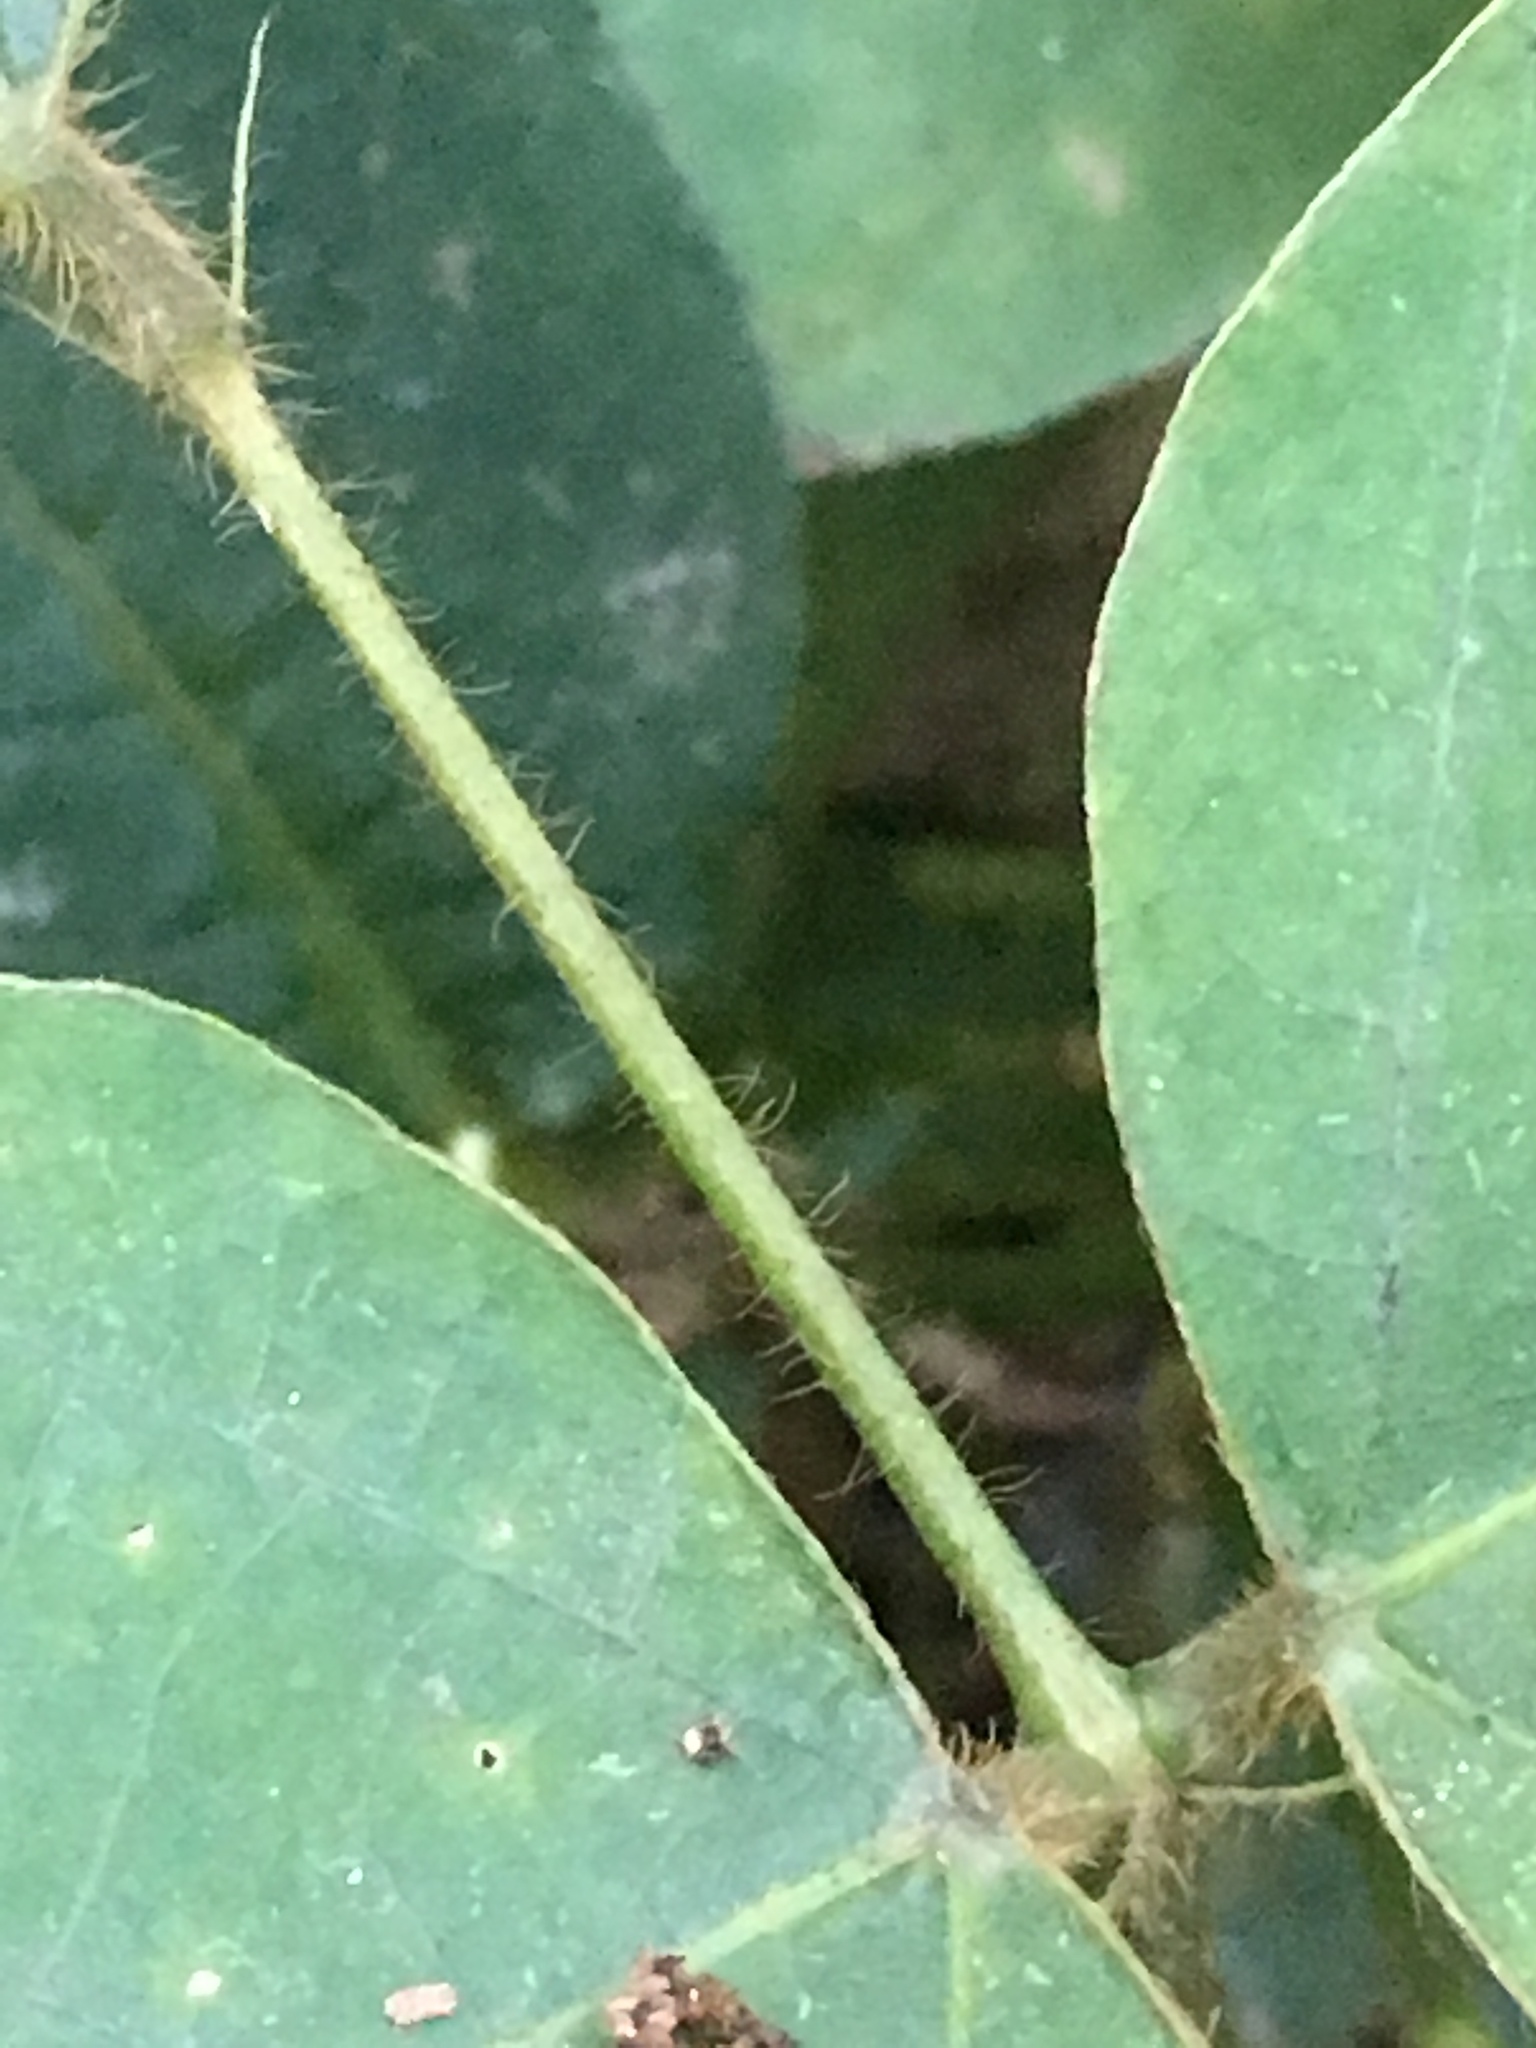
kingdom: Plantae
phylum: Tracheophyta
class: Magnoliopsida
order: Fabales
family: Fabaceae
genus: Pueraria
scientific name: Pueraria montana
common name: Kudzu
